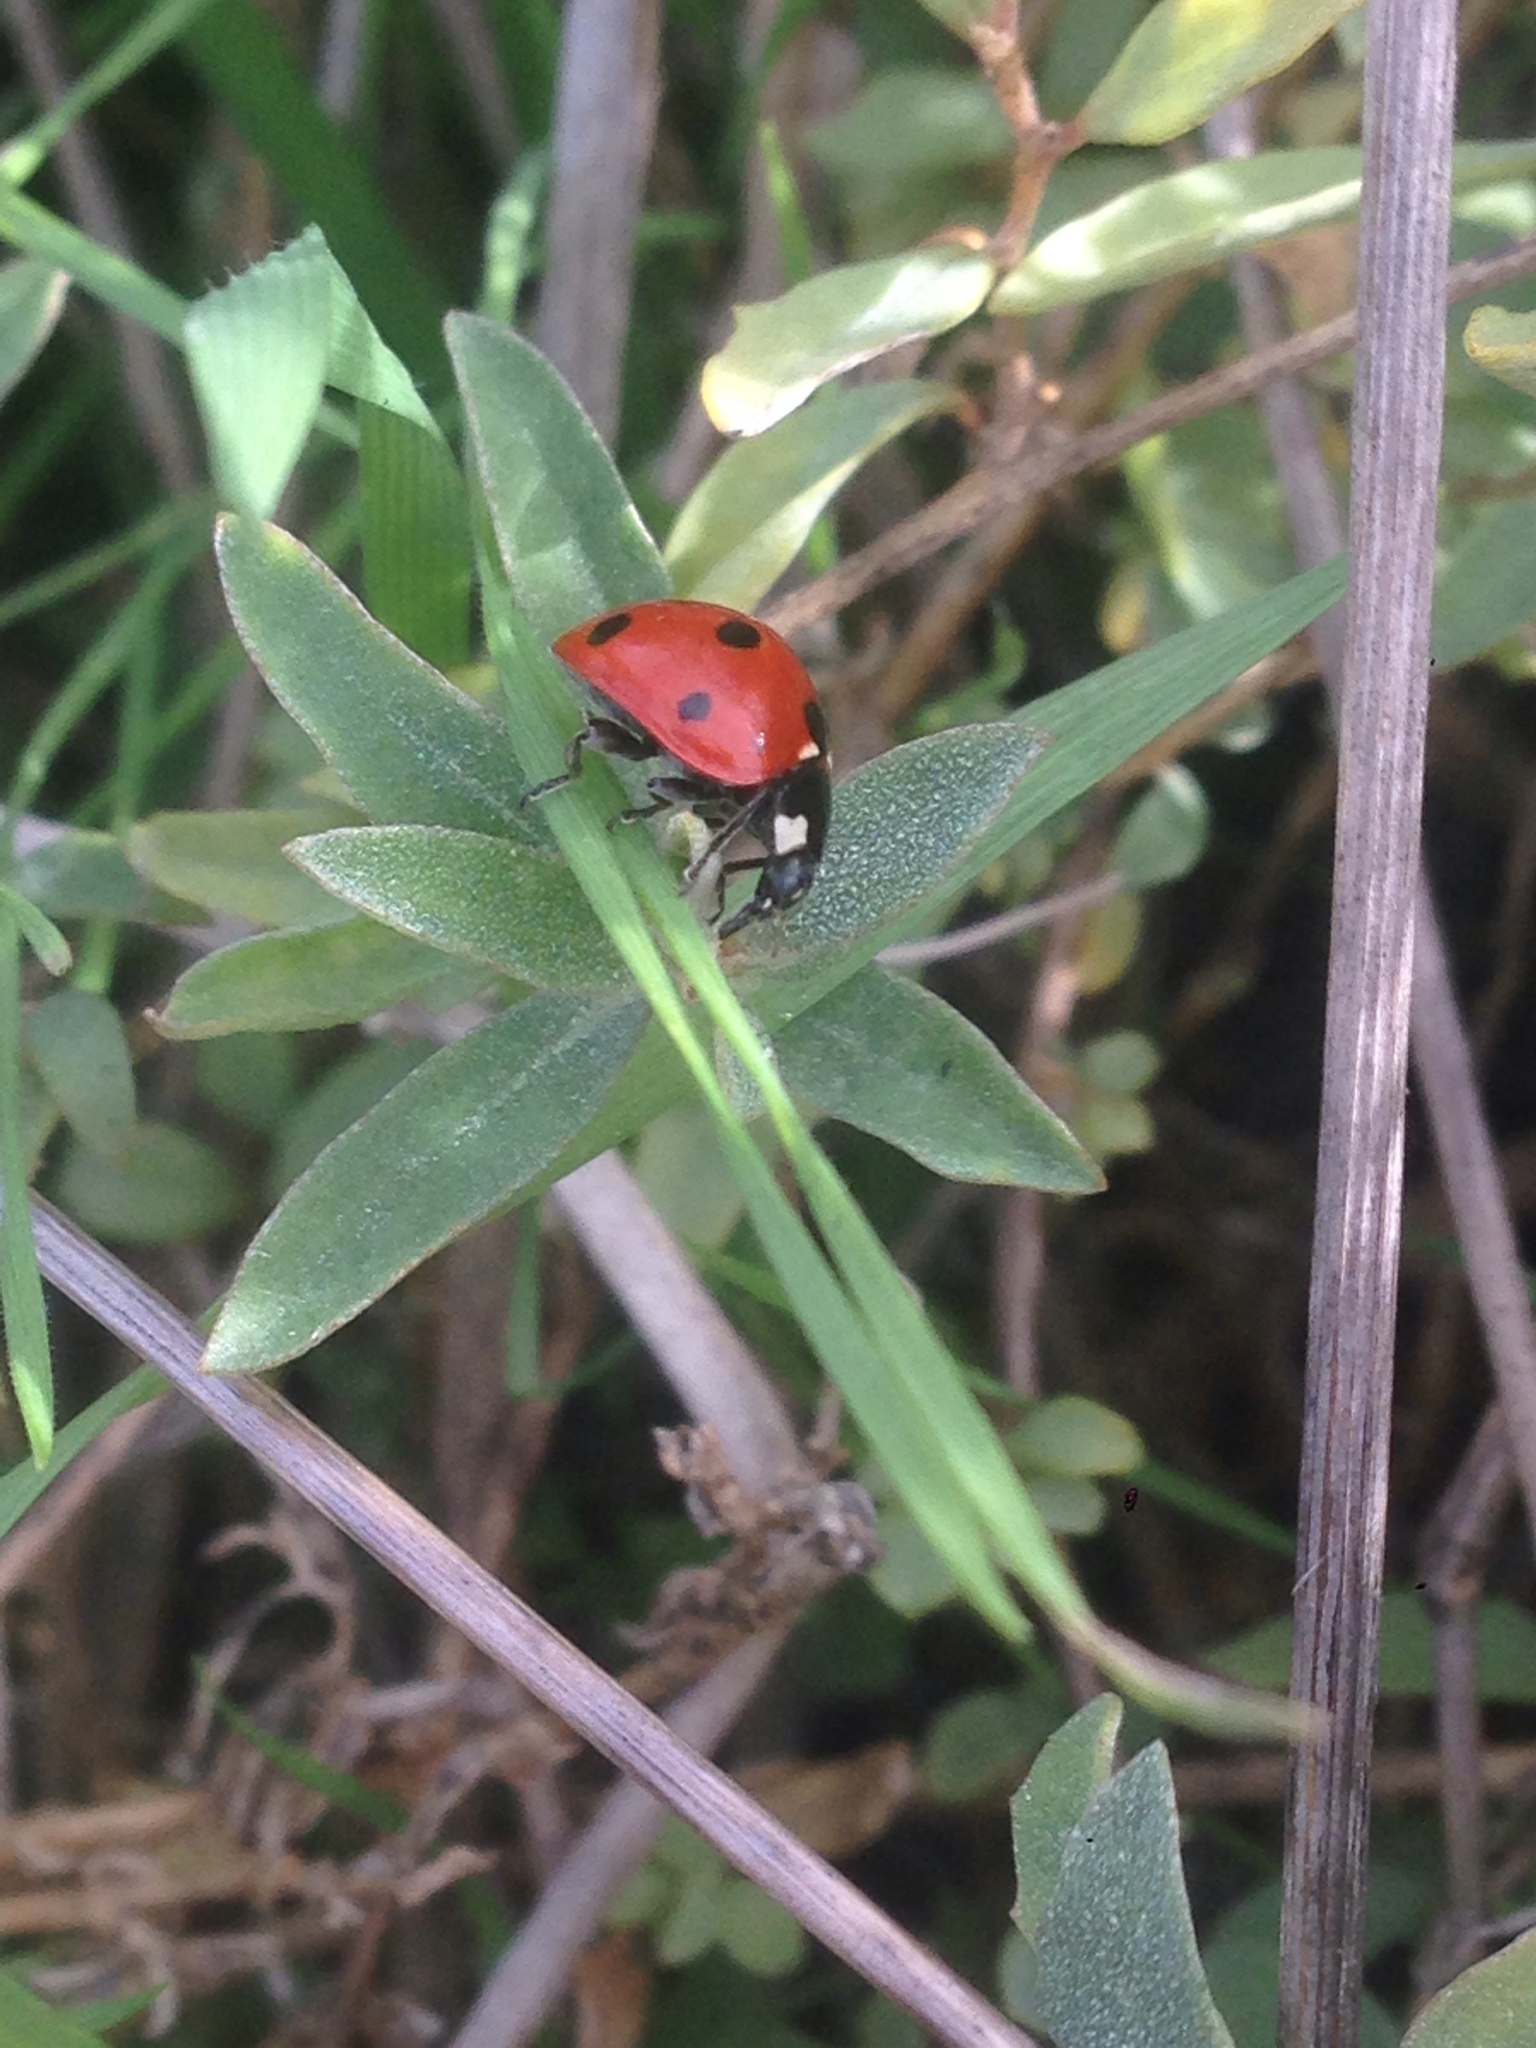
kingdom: Animalia
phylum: Arthropoda
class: Insecta
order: Coleoptera
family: Coccinellidae
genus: Coccinella
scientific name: Coccinella septempunctata
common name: Sevenspotted lady beetle
